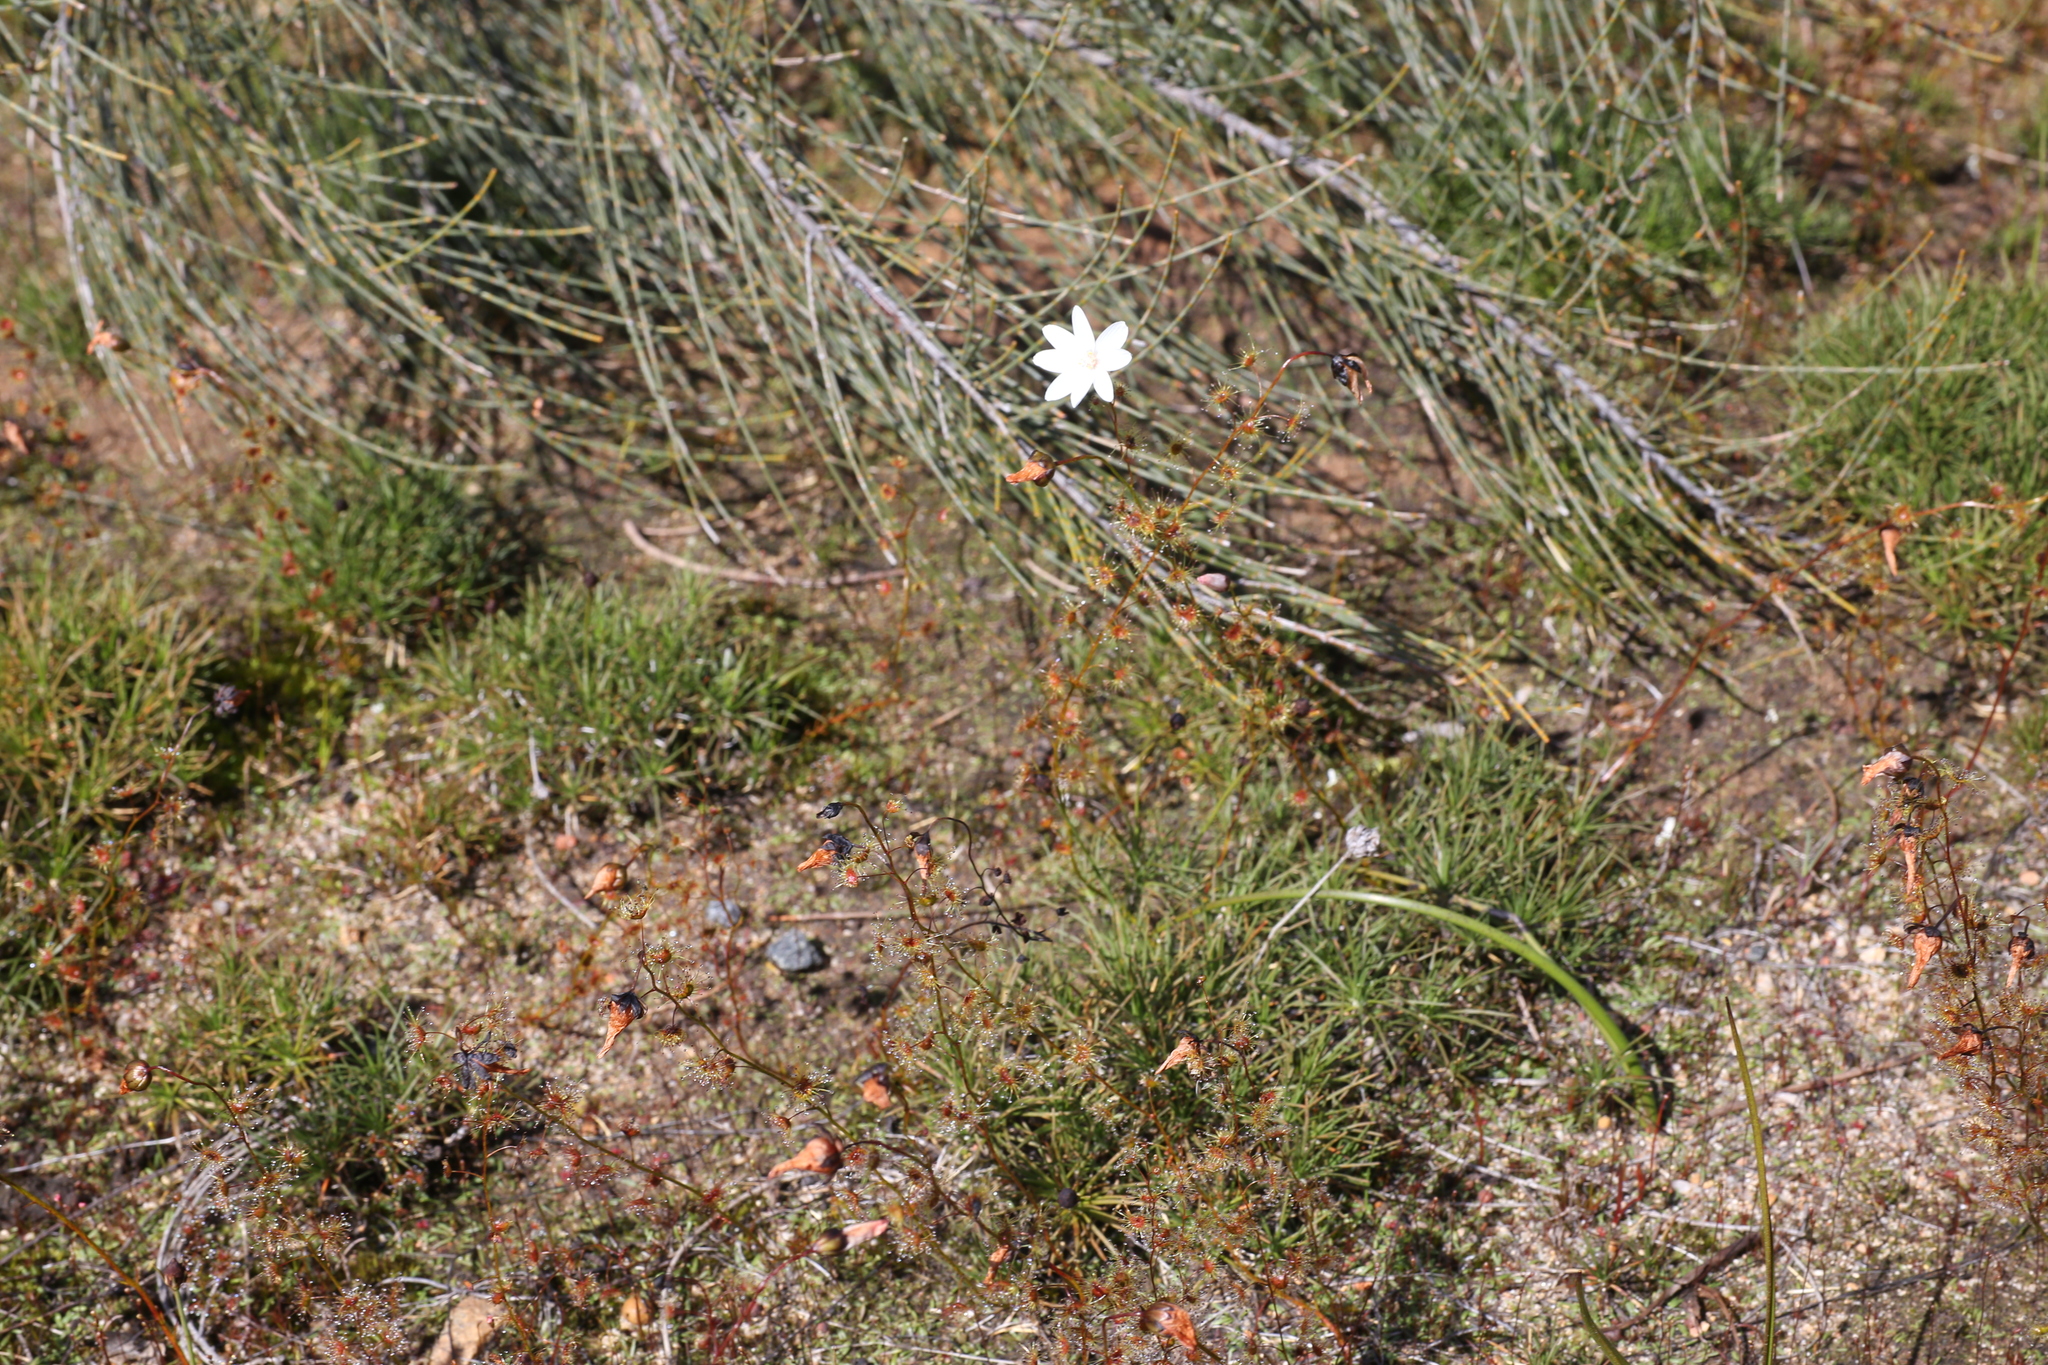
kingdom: Plantae
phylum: Tracheophyta
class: Magnoliopsida
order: Caryophyllales
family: Droseraceae
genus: Drosera
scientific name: Drosera heterophylla
